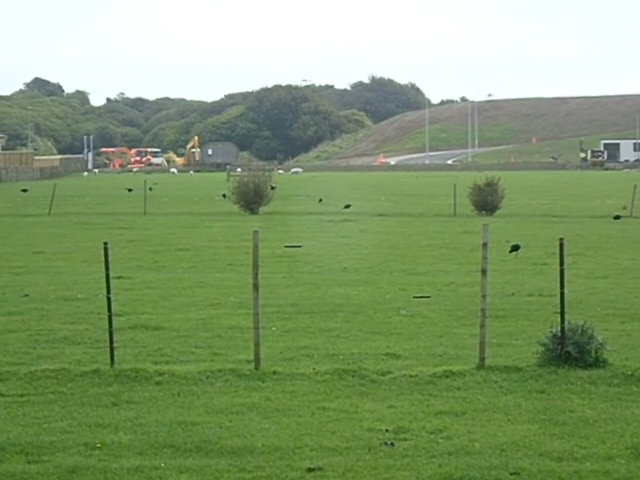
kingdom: Animalia
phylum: Chordata
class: Aves
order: Gruiformes
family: Rallidae
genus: Porphyrio
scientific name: Porphyrio melanotus
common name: Australasian swamphen
